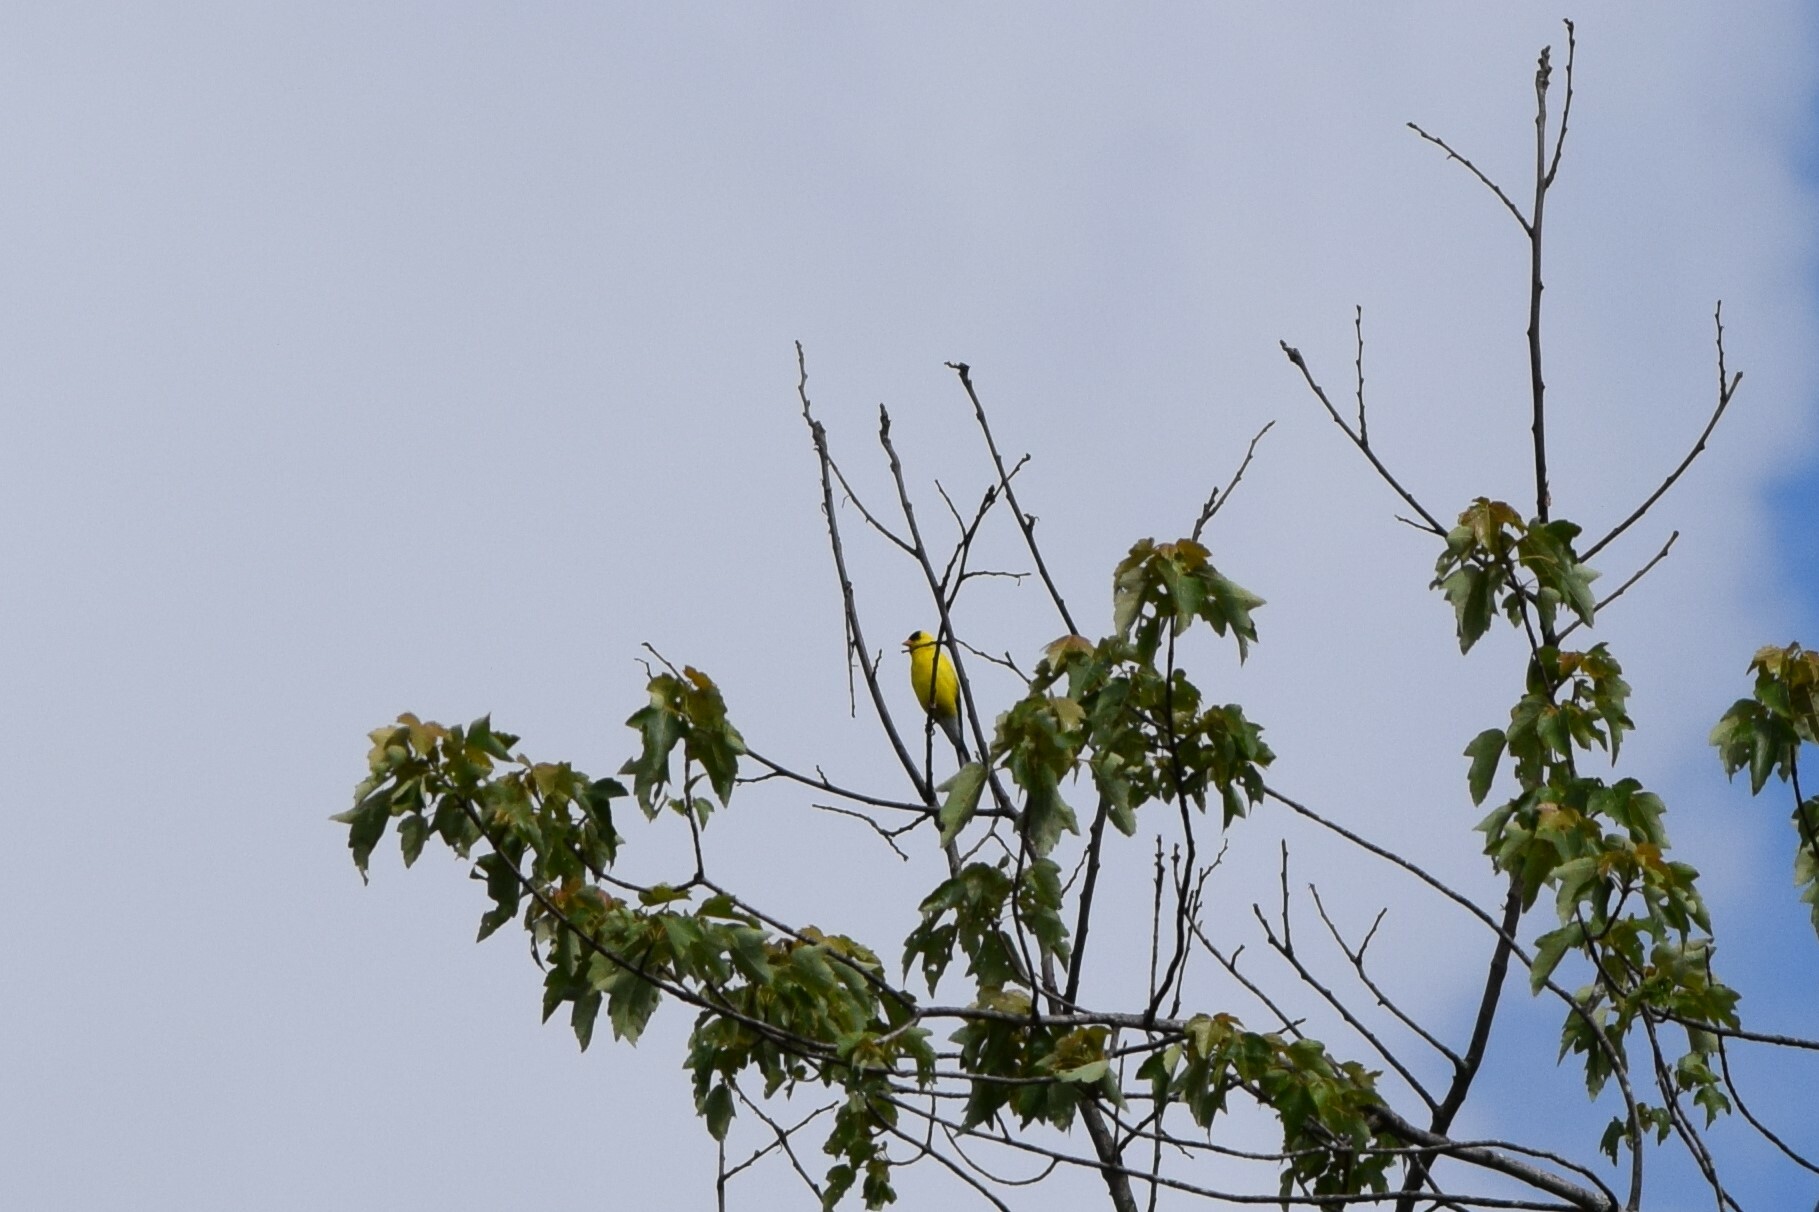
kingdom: Animalia
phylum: Chordata
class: Aves
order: Passeriformes
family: Fringillidae
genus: Spinus
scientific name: Spinus tristis
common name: American goldfinch
